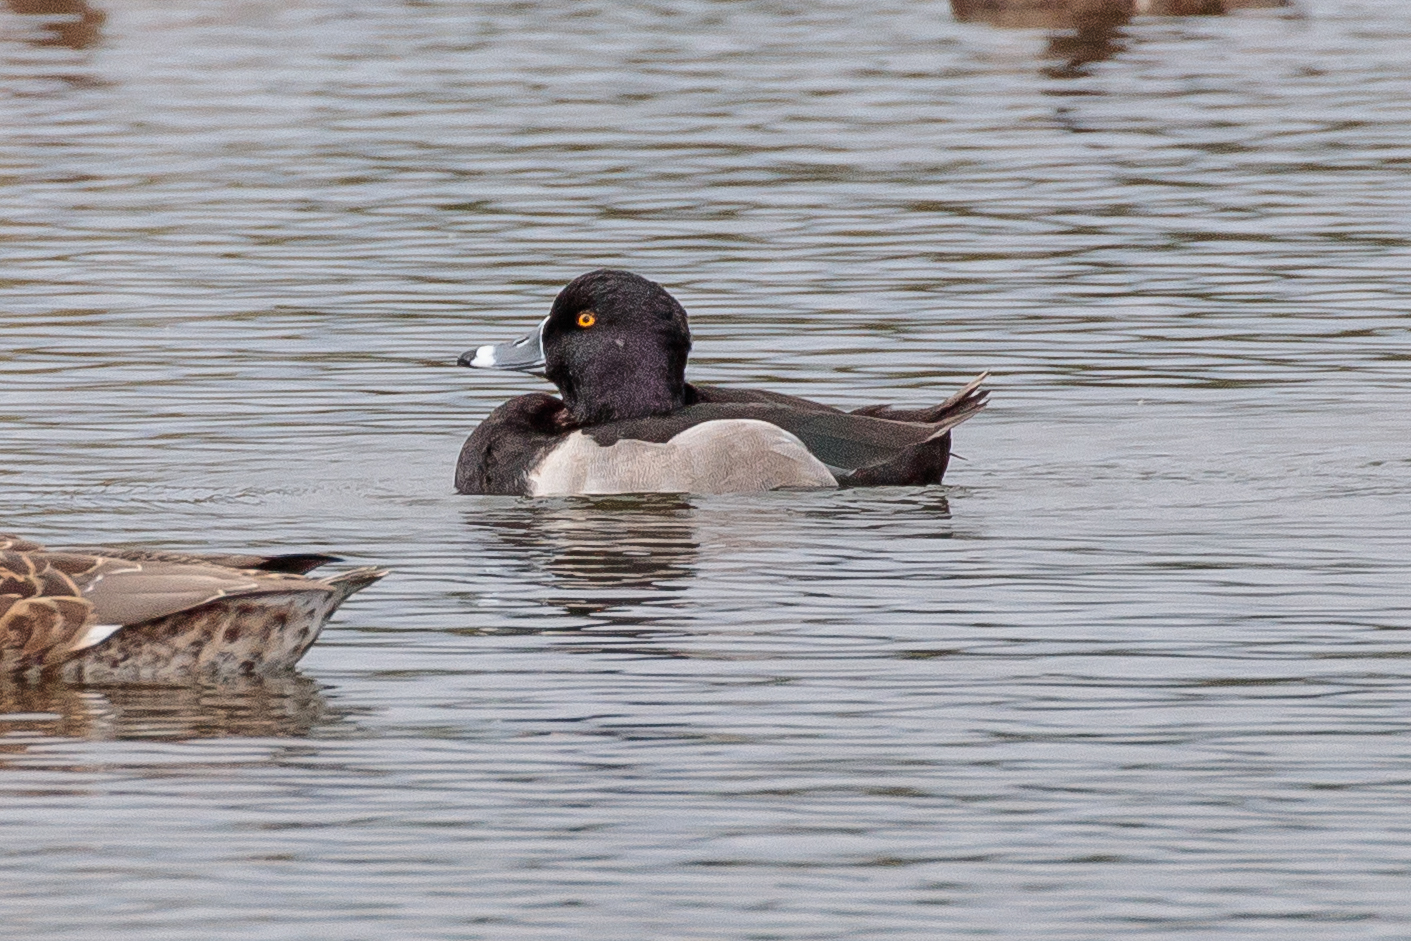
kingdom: Animalia
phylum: Chordata
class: Aves
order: Anseriformes
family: Anatidae
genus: Aythya
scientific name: Aythya collaris
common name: Ring-necked duck
